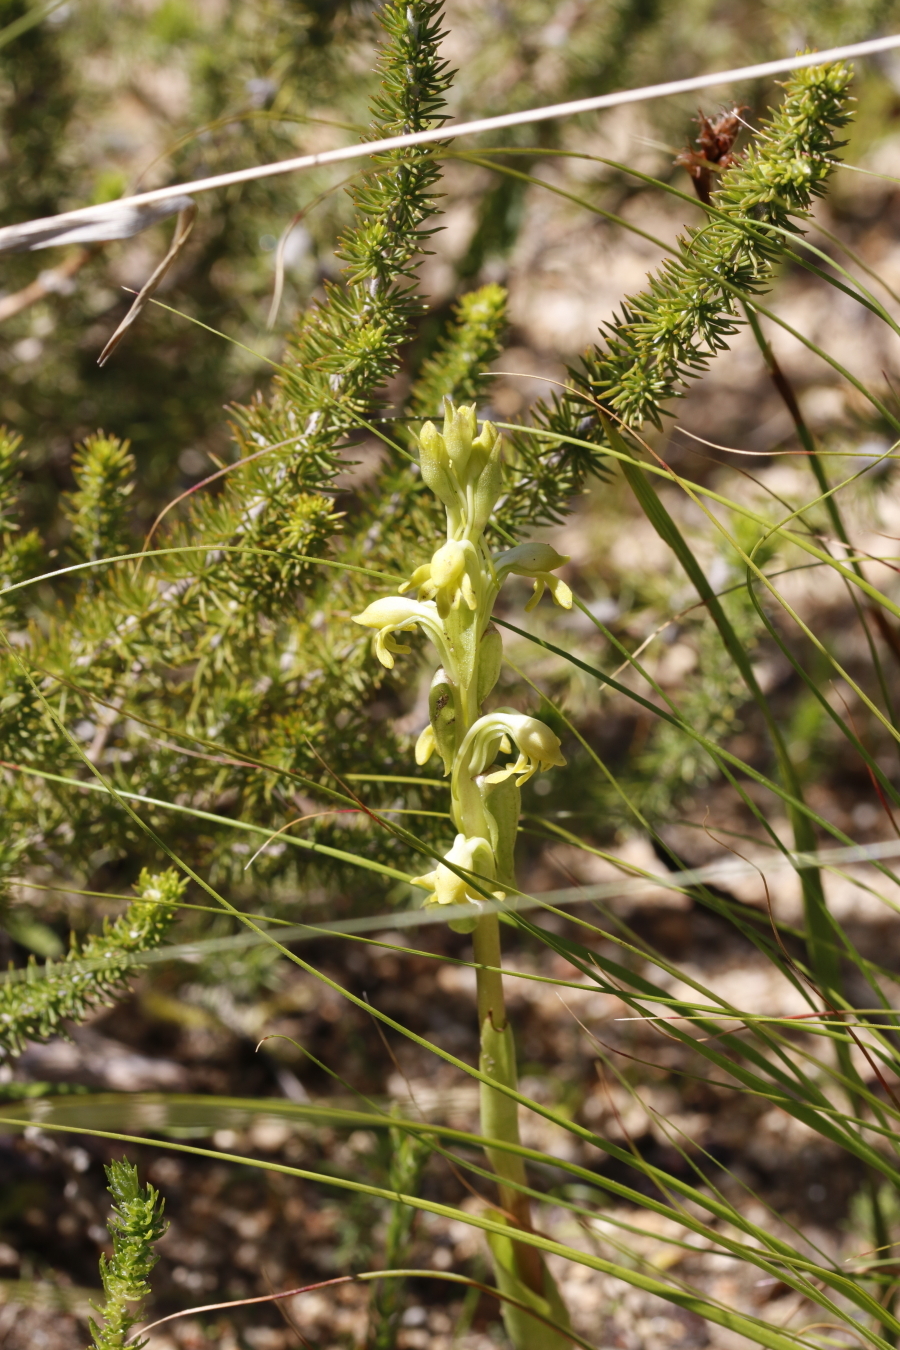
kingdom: Plantae
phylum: Tracheophyta
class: Liliopsida
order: Asparagales
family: Orchidaceae
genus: Satyrium
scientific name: Satyrium bicorne
